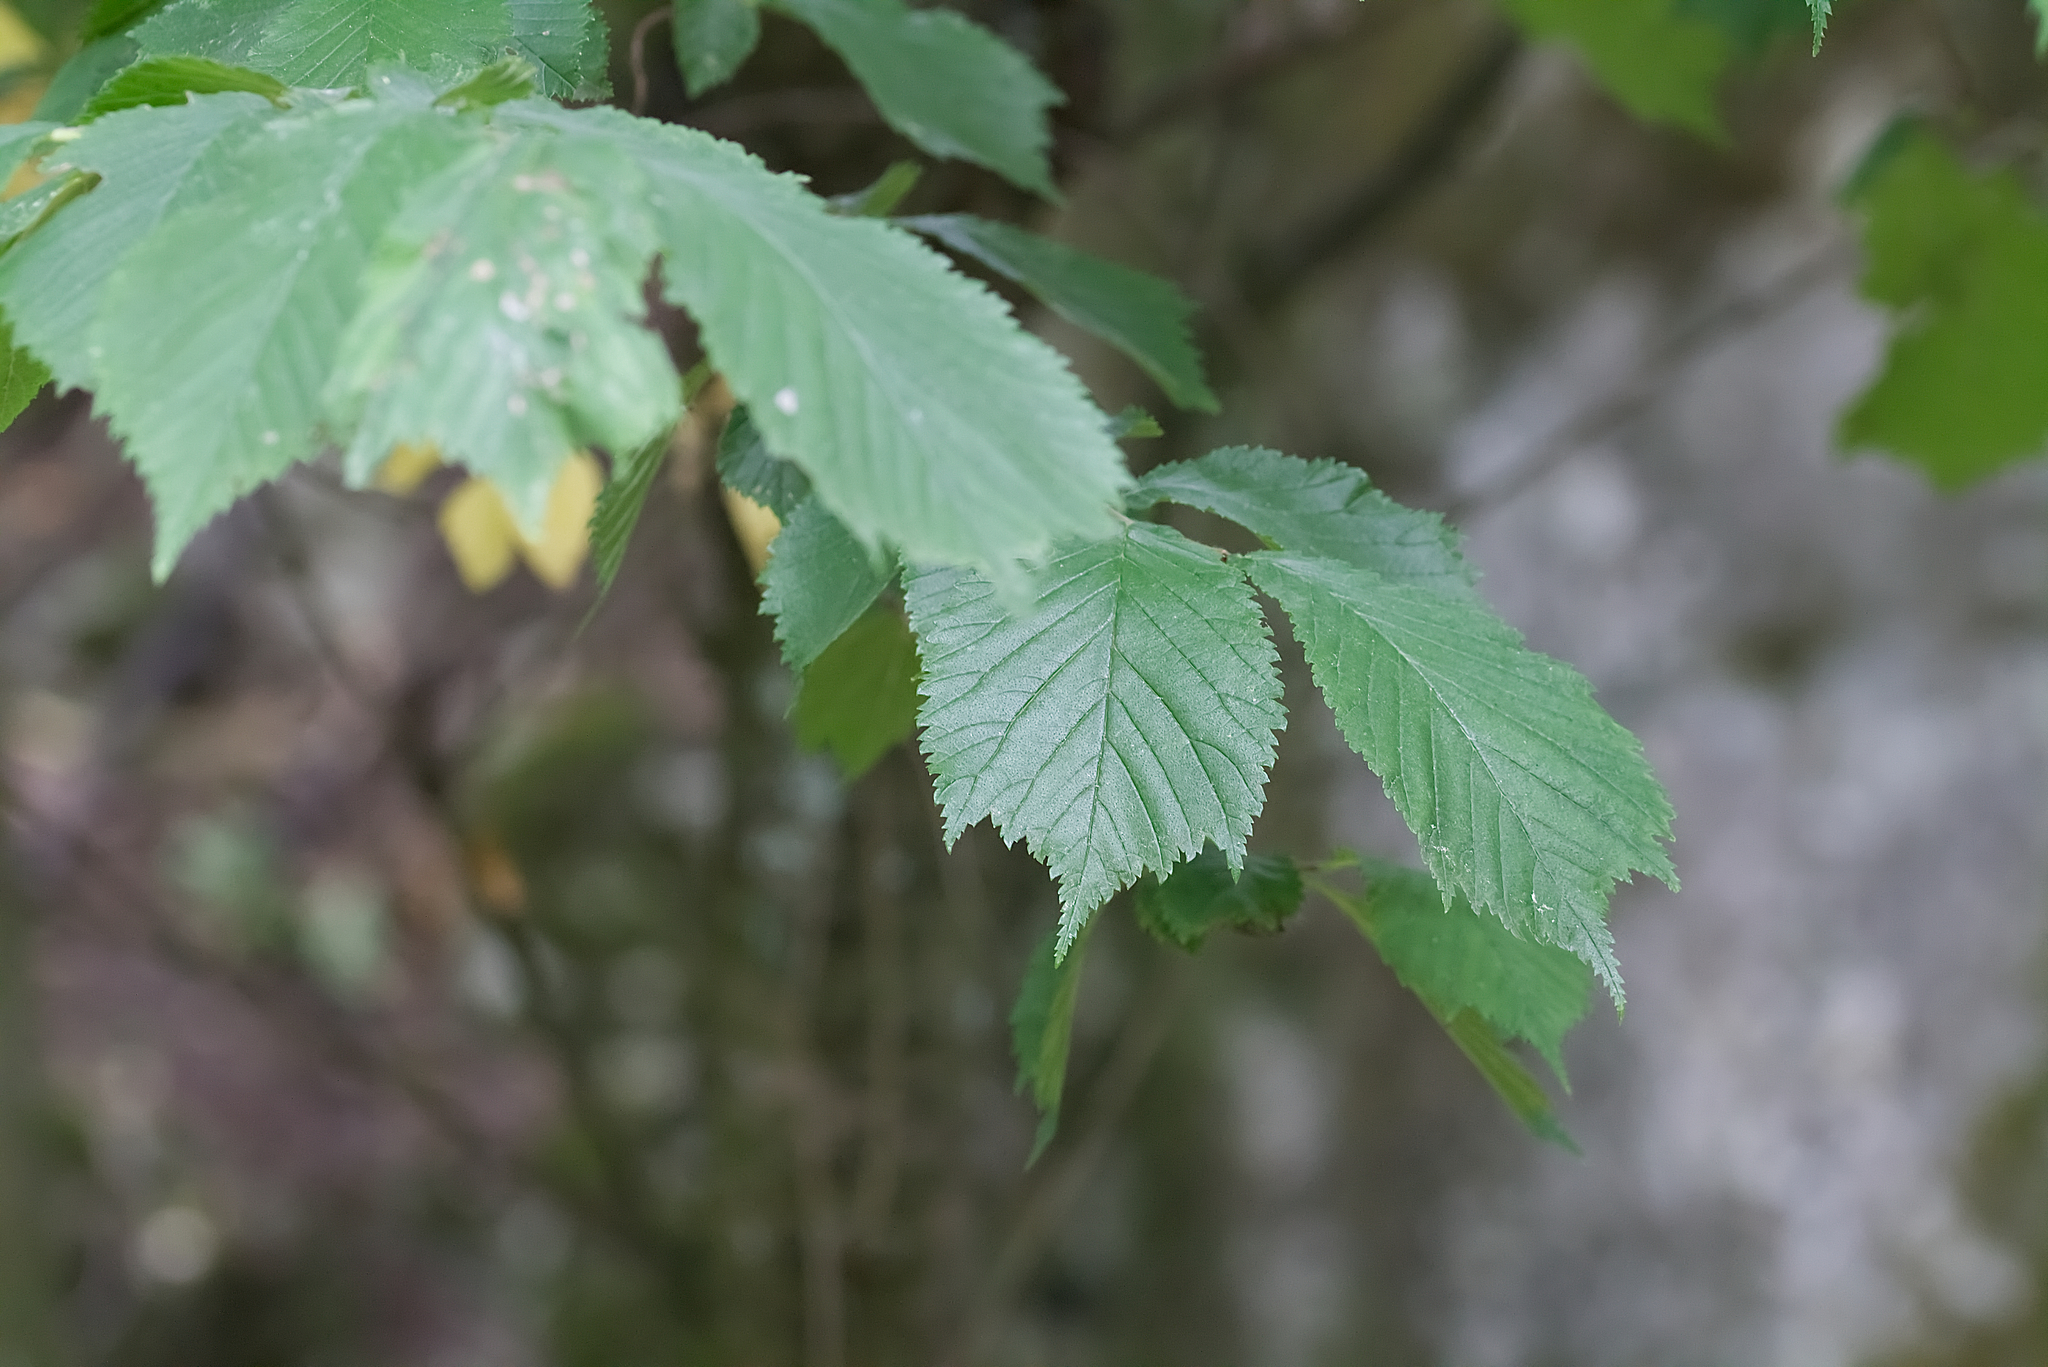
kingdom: Plantae
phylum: Tracheophyta
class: Magnoliopsida
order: Rosales
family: Ulmaceae
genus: Ulmus
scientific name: Ulmus glabra
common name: Wych elm
